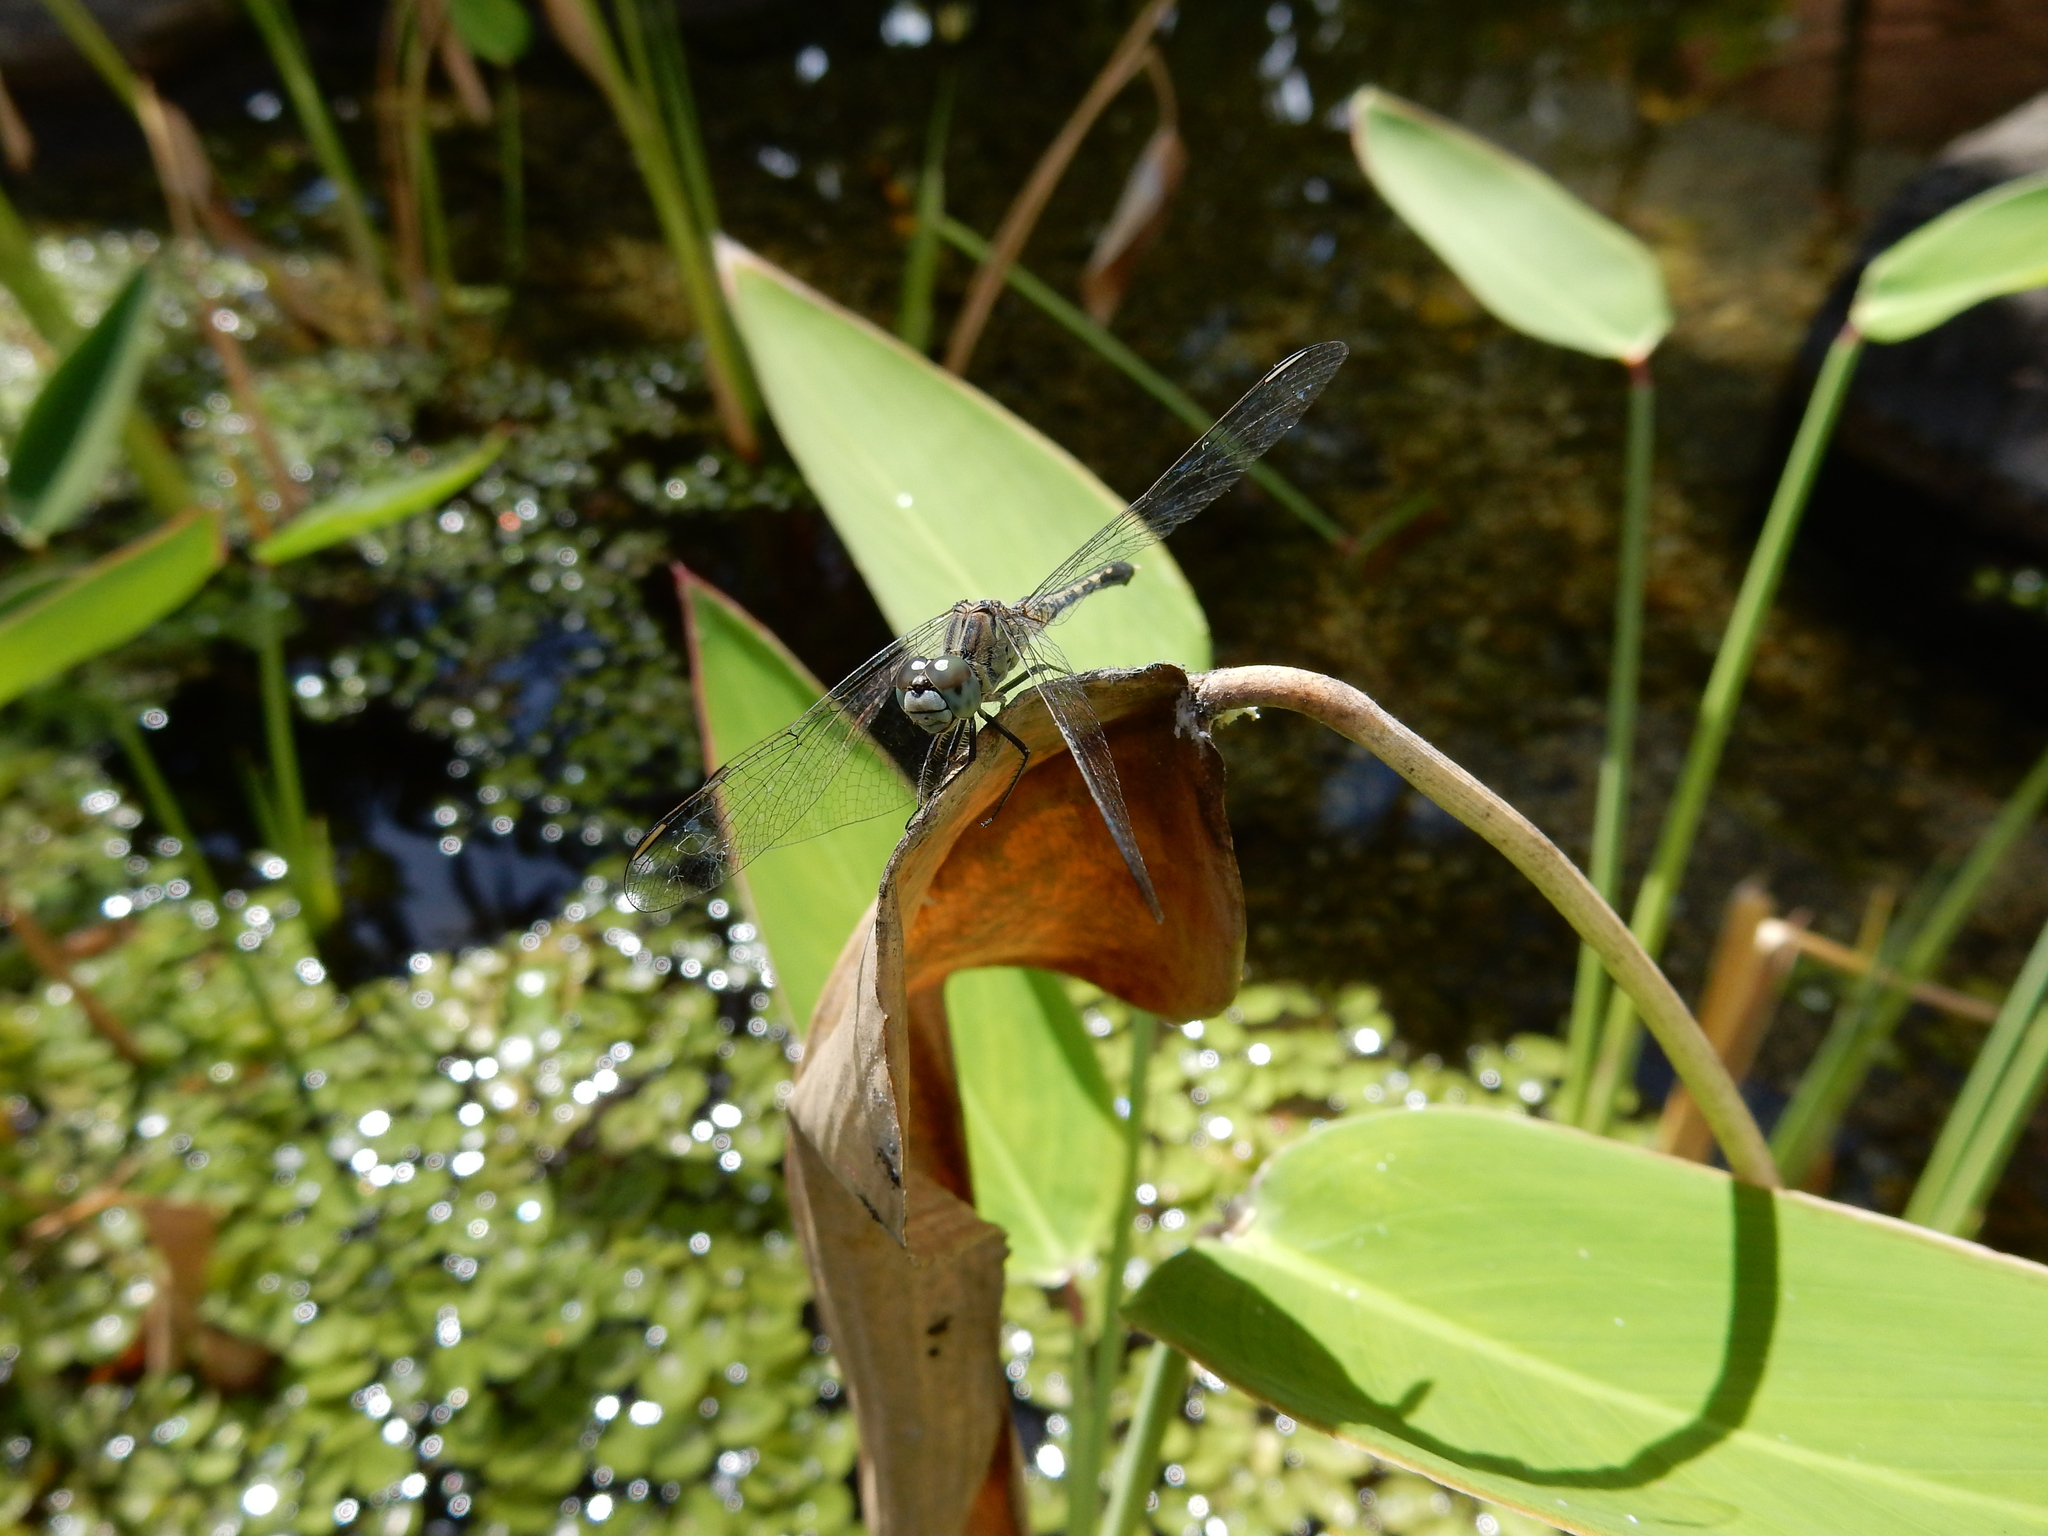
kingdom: Animalia
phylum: Arthropoda
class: Insecta
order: Odonata
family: Libellulidae
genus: Diplacodes
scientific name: Diplacodes trivialis
